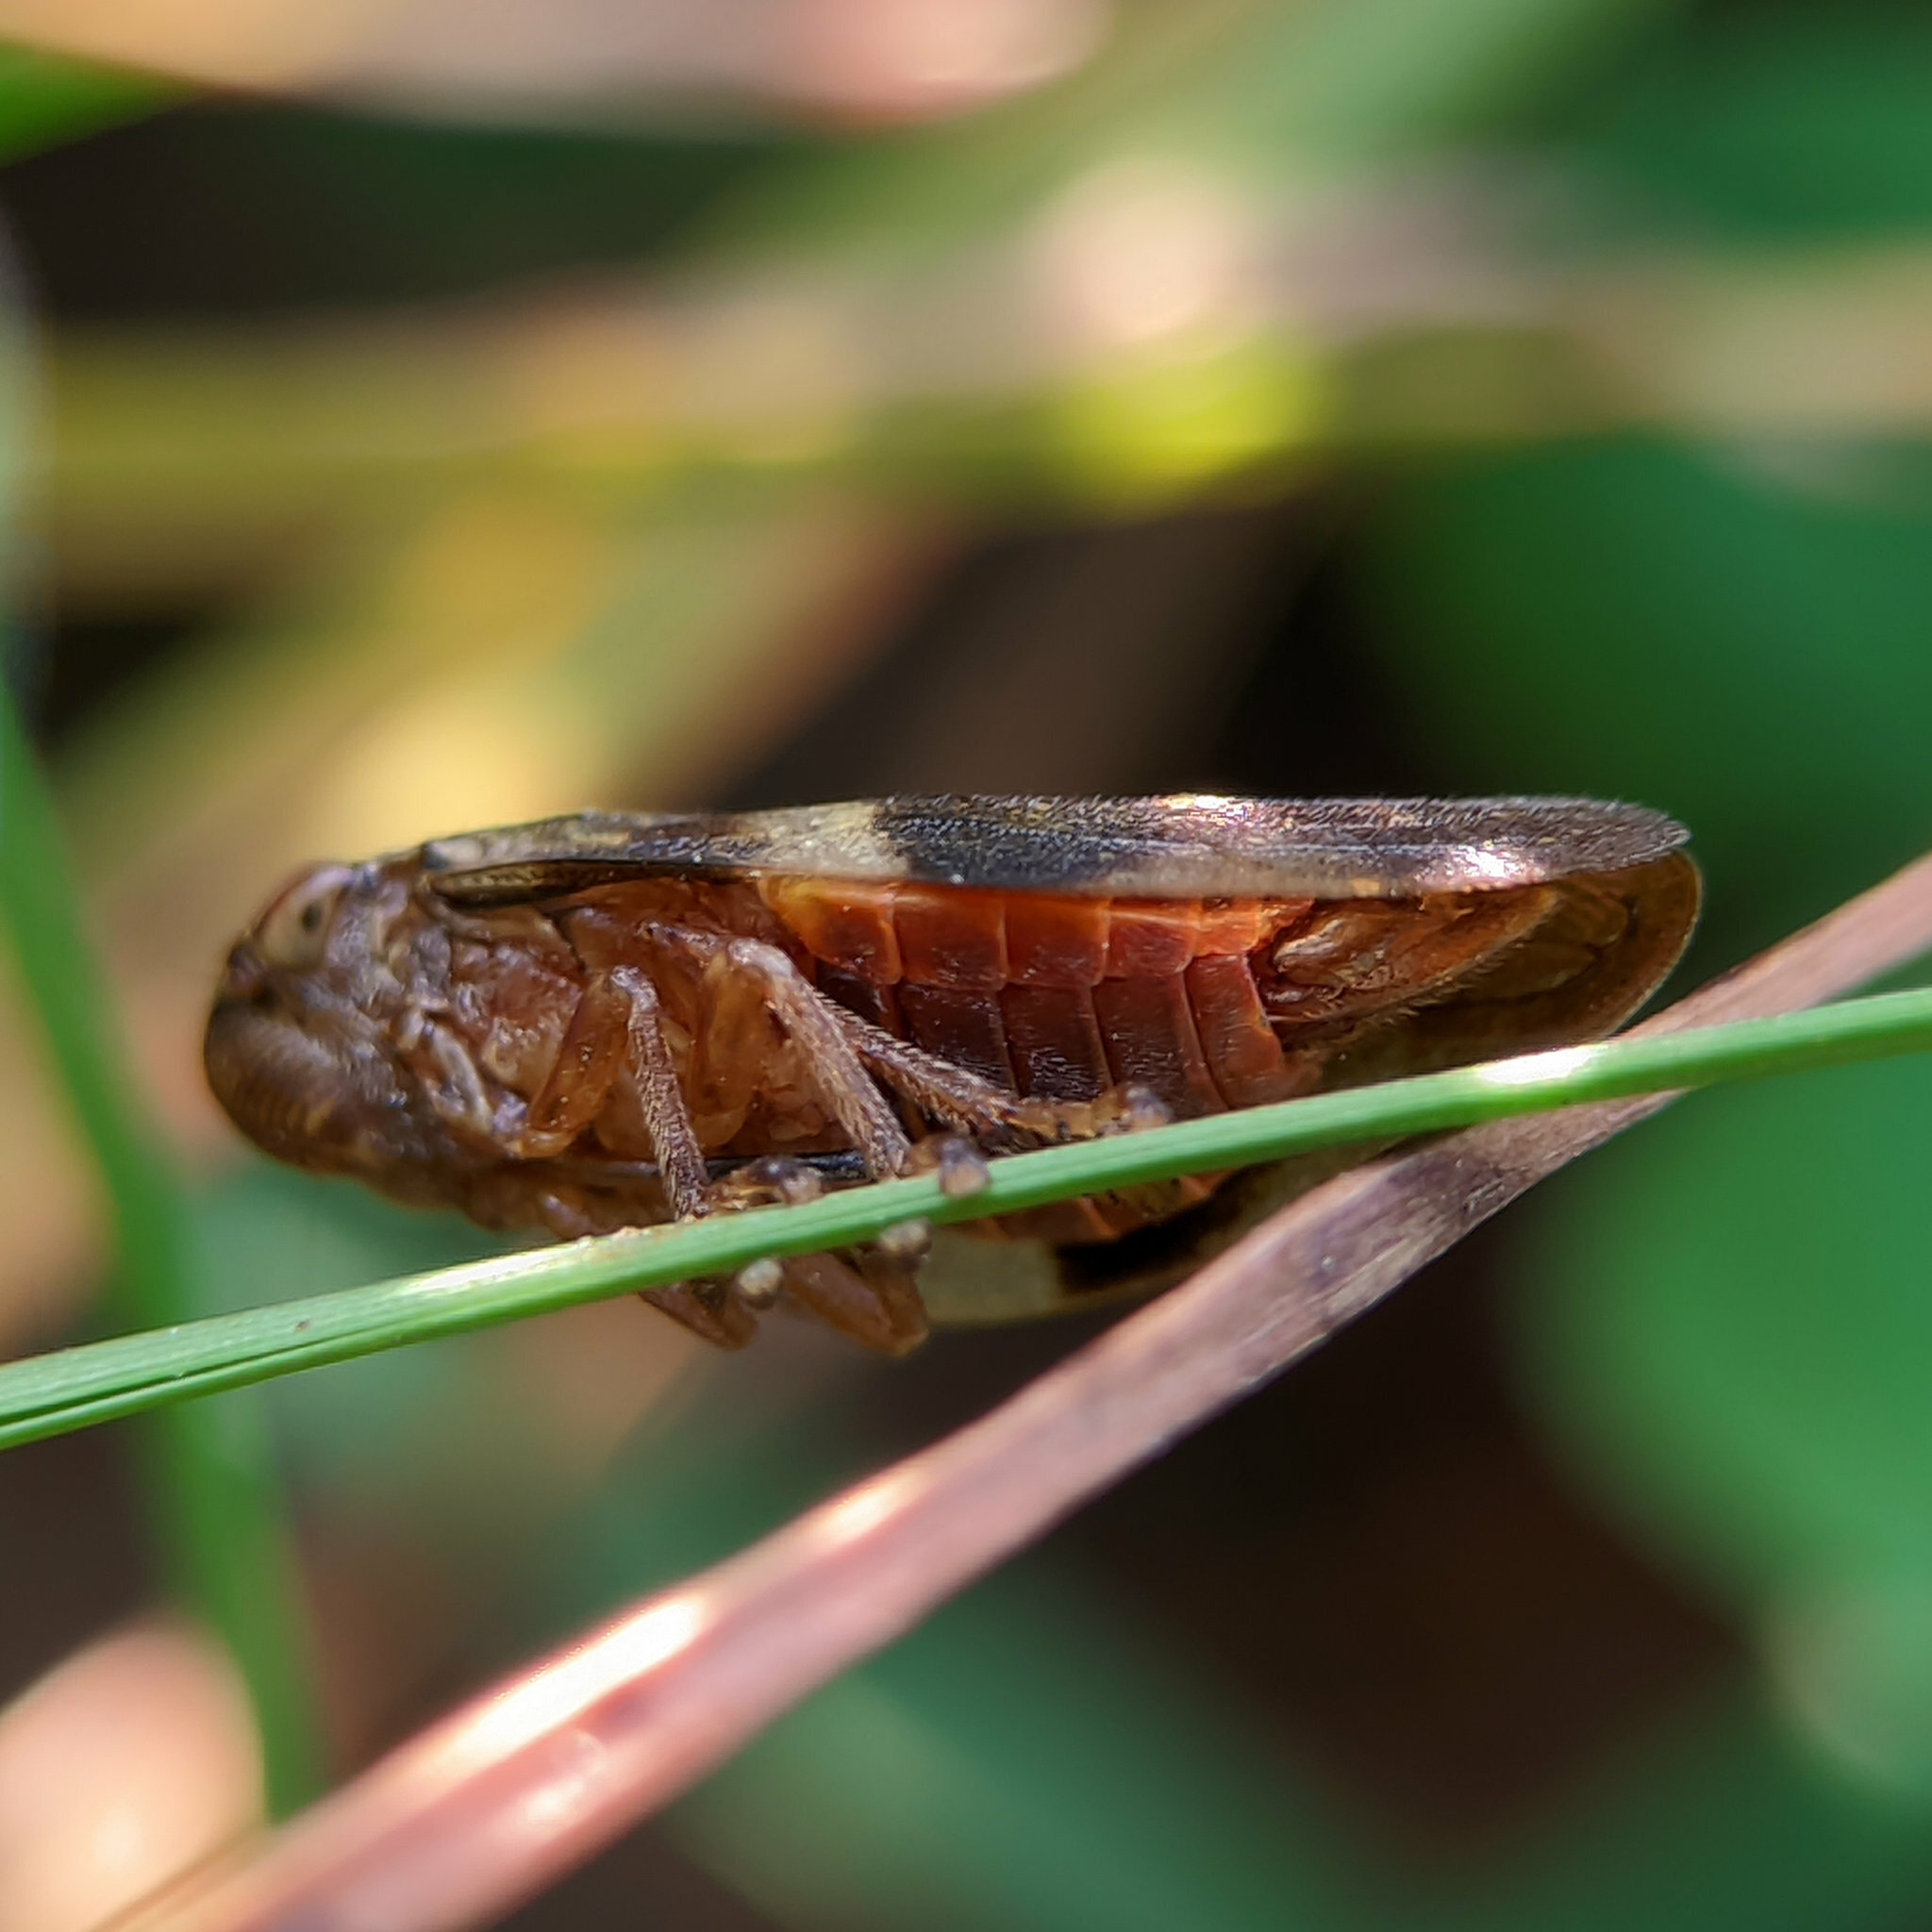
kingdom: Animalia
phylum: Arthropoda
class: Insecta
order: Hemiptera
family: Aphrophoridae
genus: Aphrophora
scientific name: Aphrophora alni
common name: European alder spittlebug
